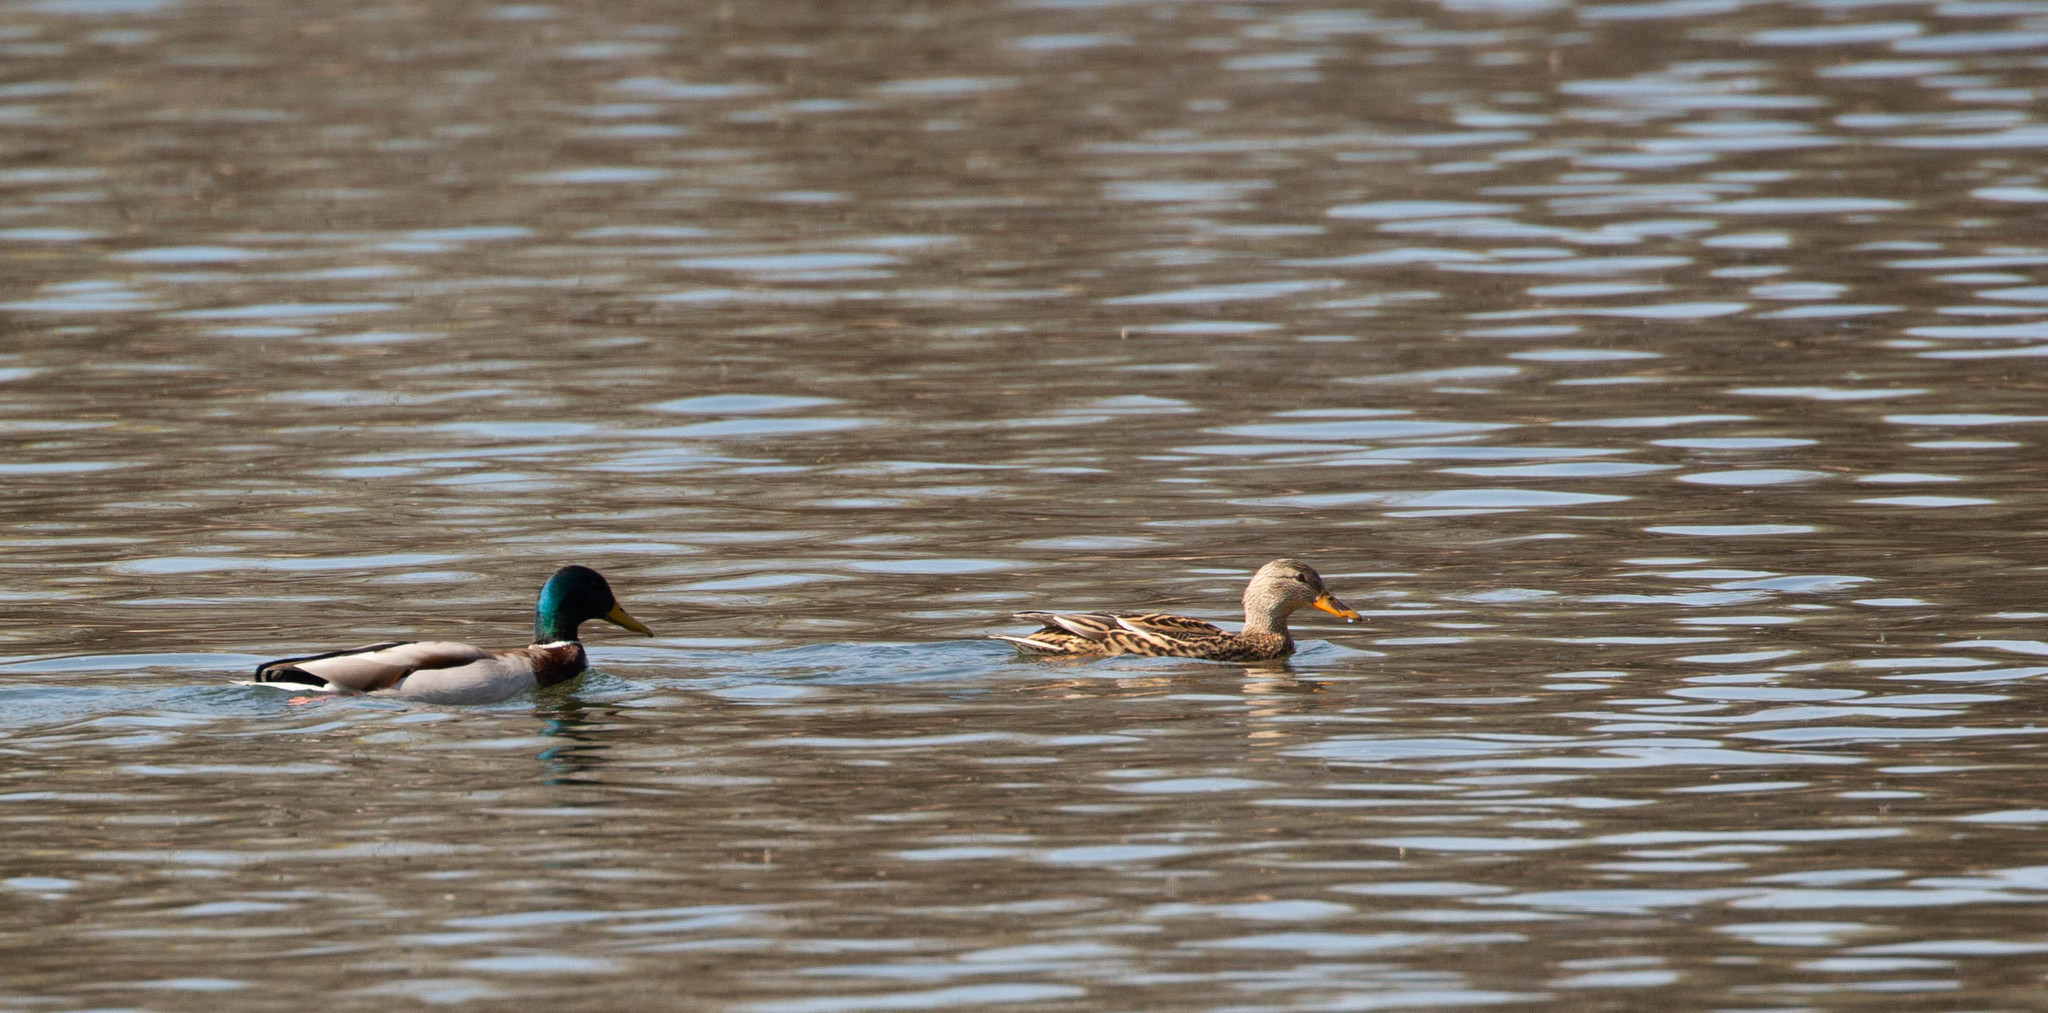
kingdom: Animalia
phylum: Chordata
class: Aves
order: Anseriformes
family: Anatidae
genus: Anas
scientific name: Anas platyrhynchos
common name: Mallard
